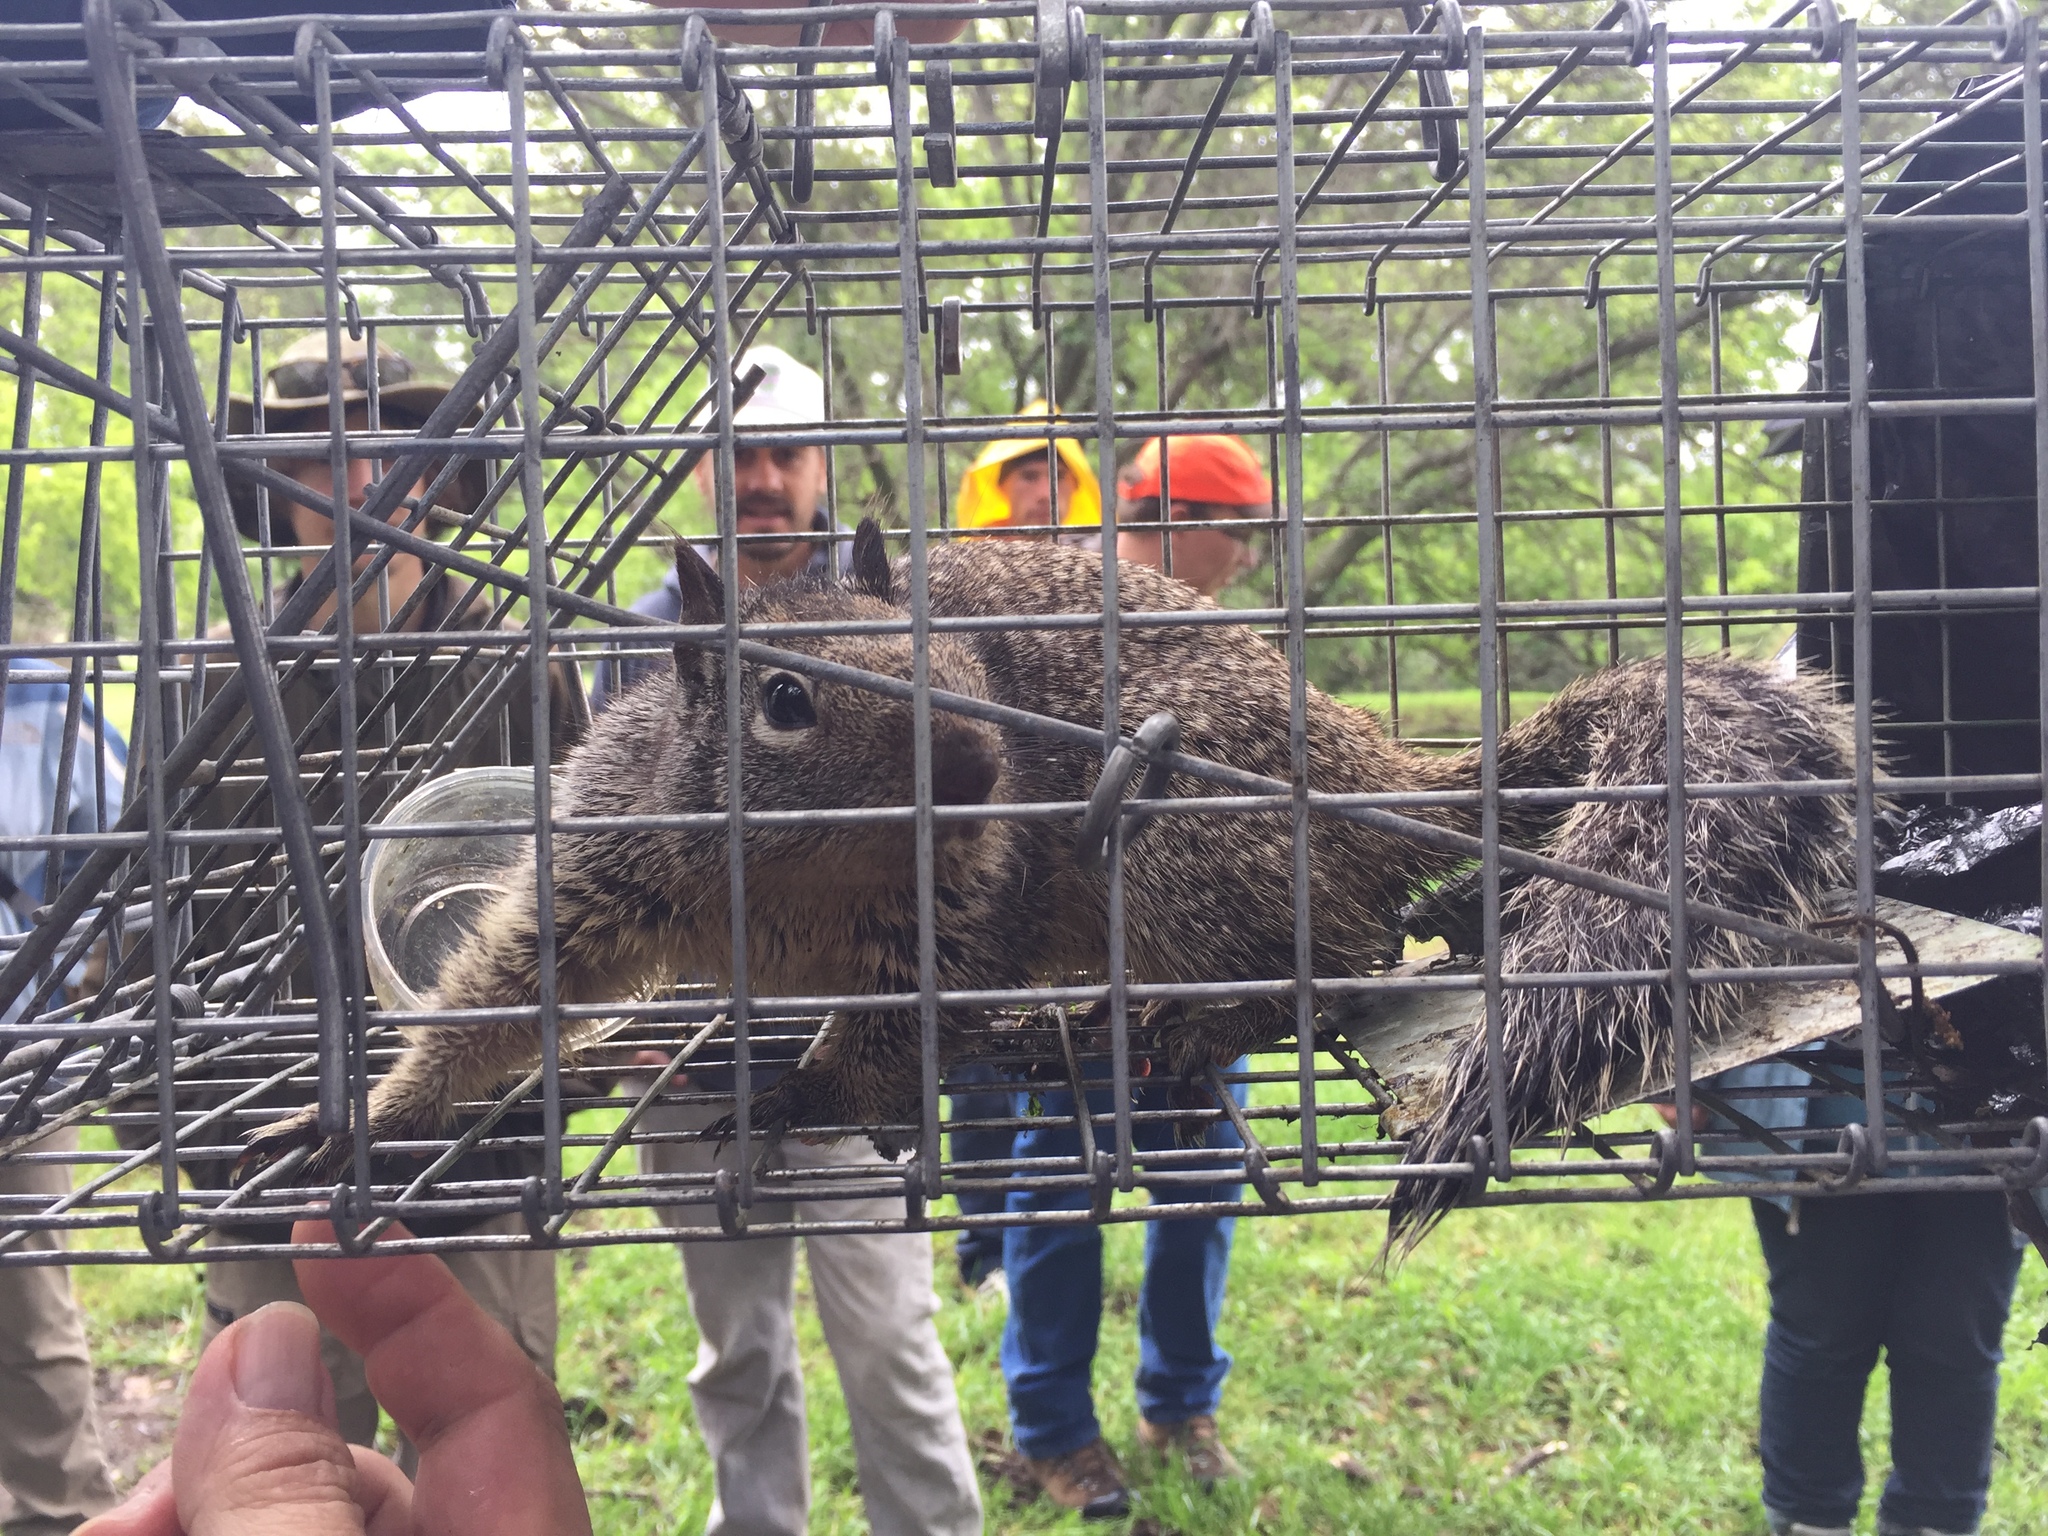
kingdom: Animalia
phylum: Chordata
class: Mammalia
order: Rodentia
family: Sciuridae
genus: Otospermophilus
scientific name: Otospermophilus beecheyi
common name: California ground squirrel
